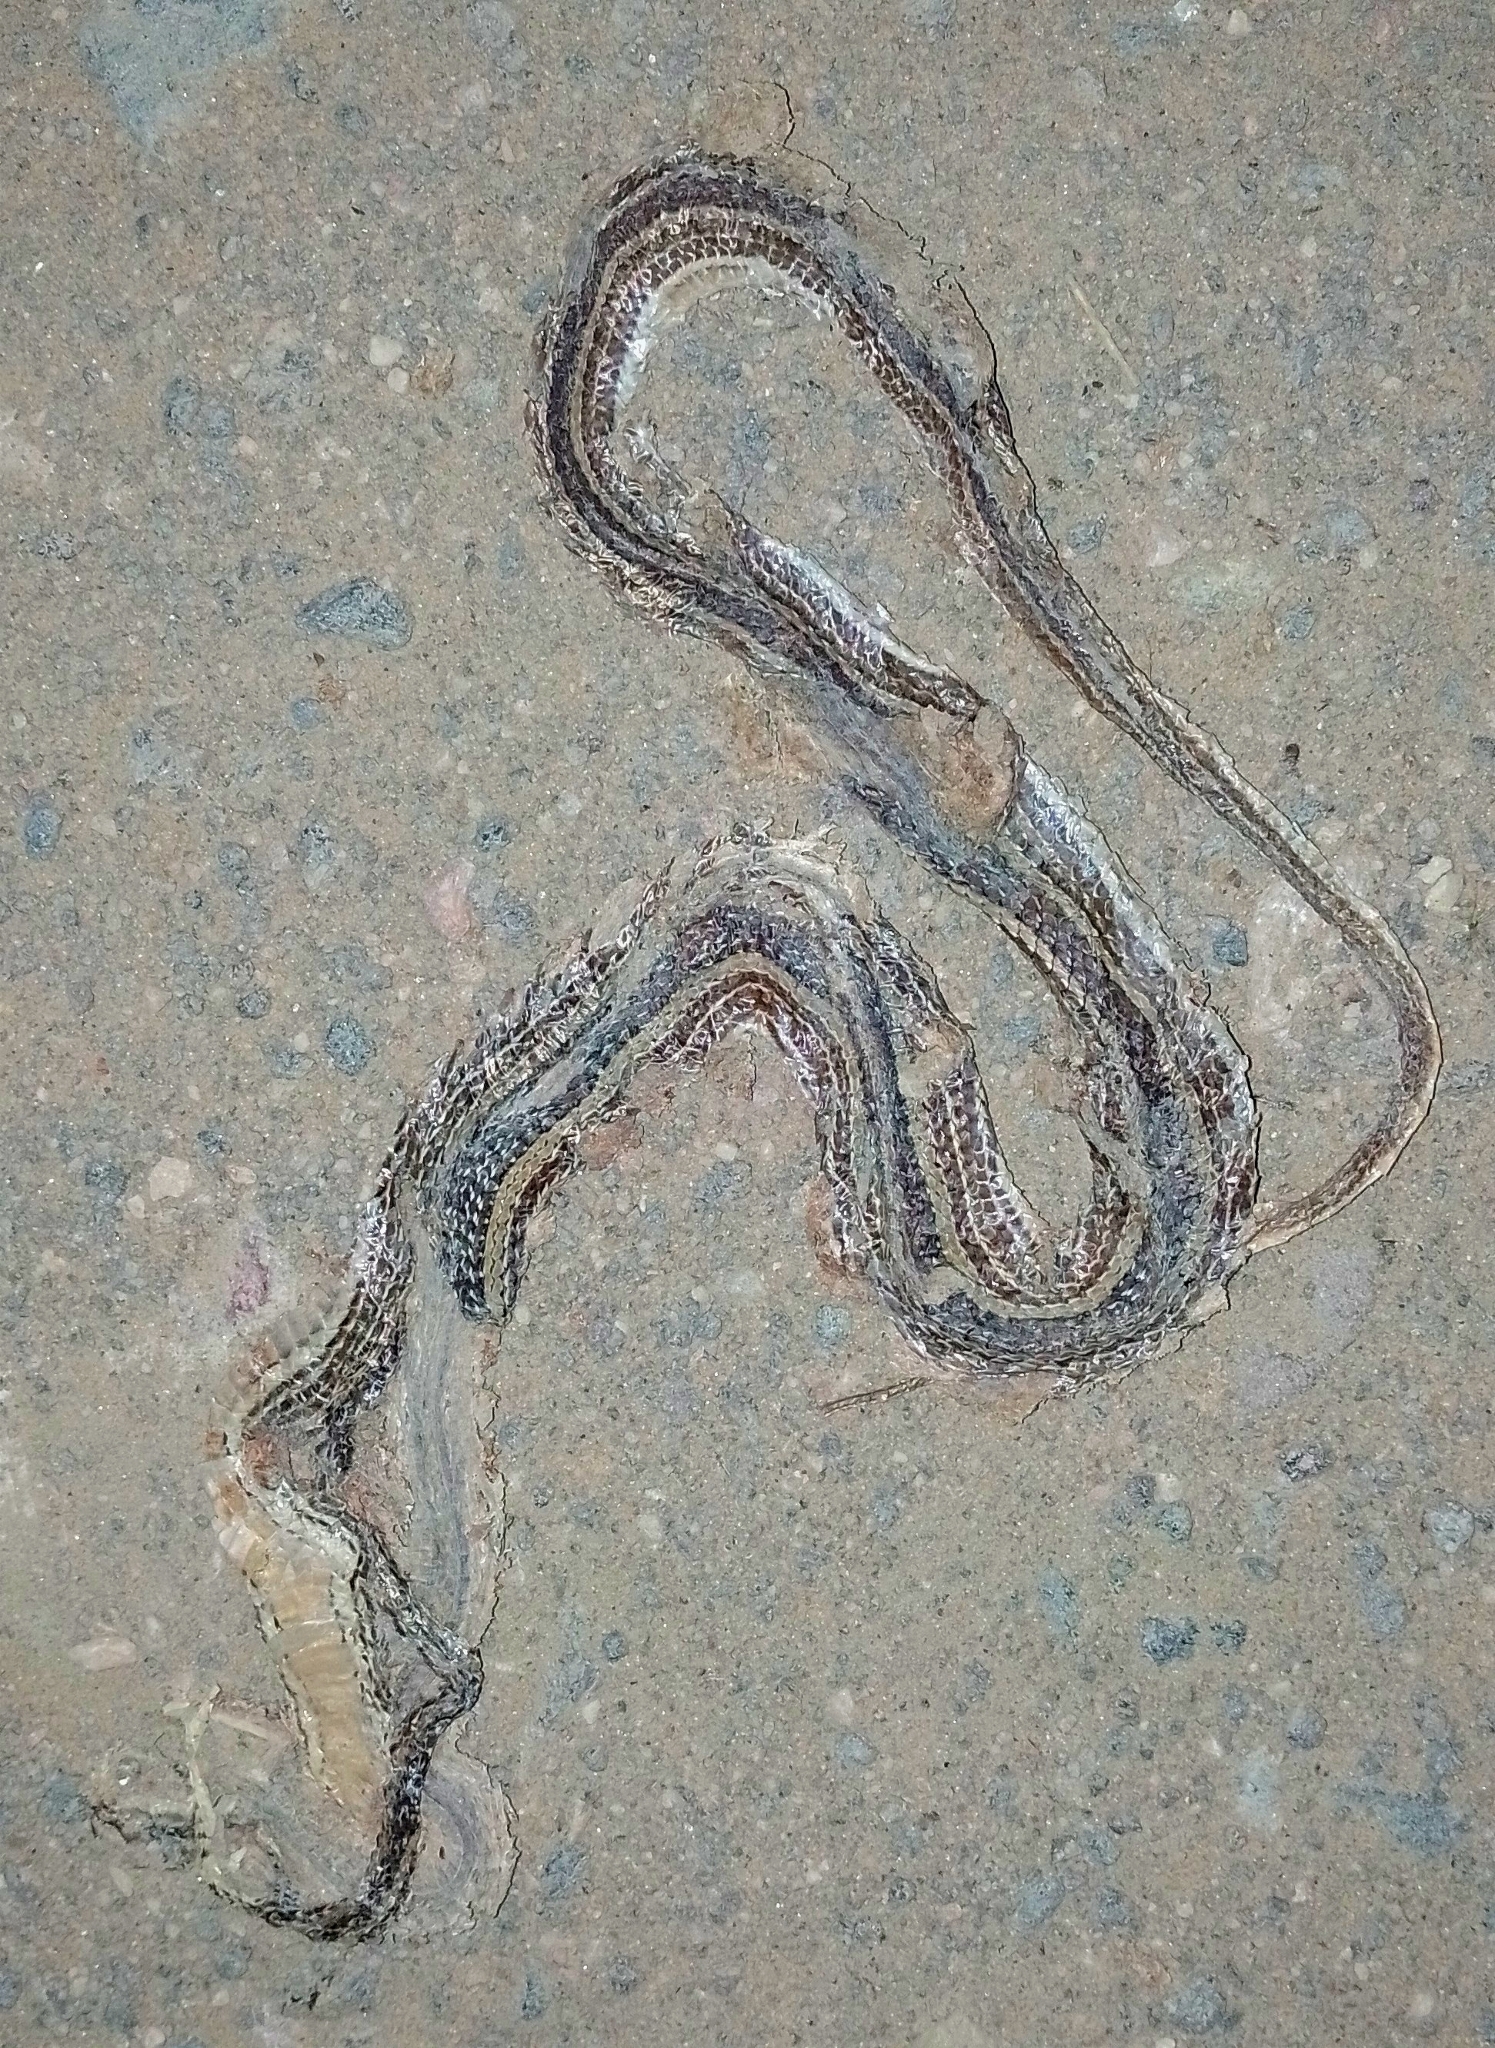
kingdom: Animalia
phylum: Chordata
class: Squamata
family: Colubridae
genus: Philodryas
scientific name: Philodryas psammophidea
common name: Günther's green racer
